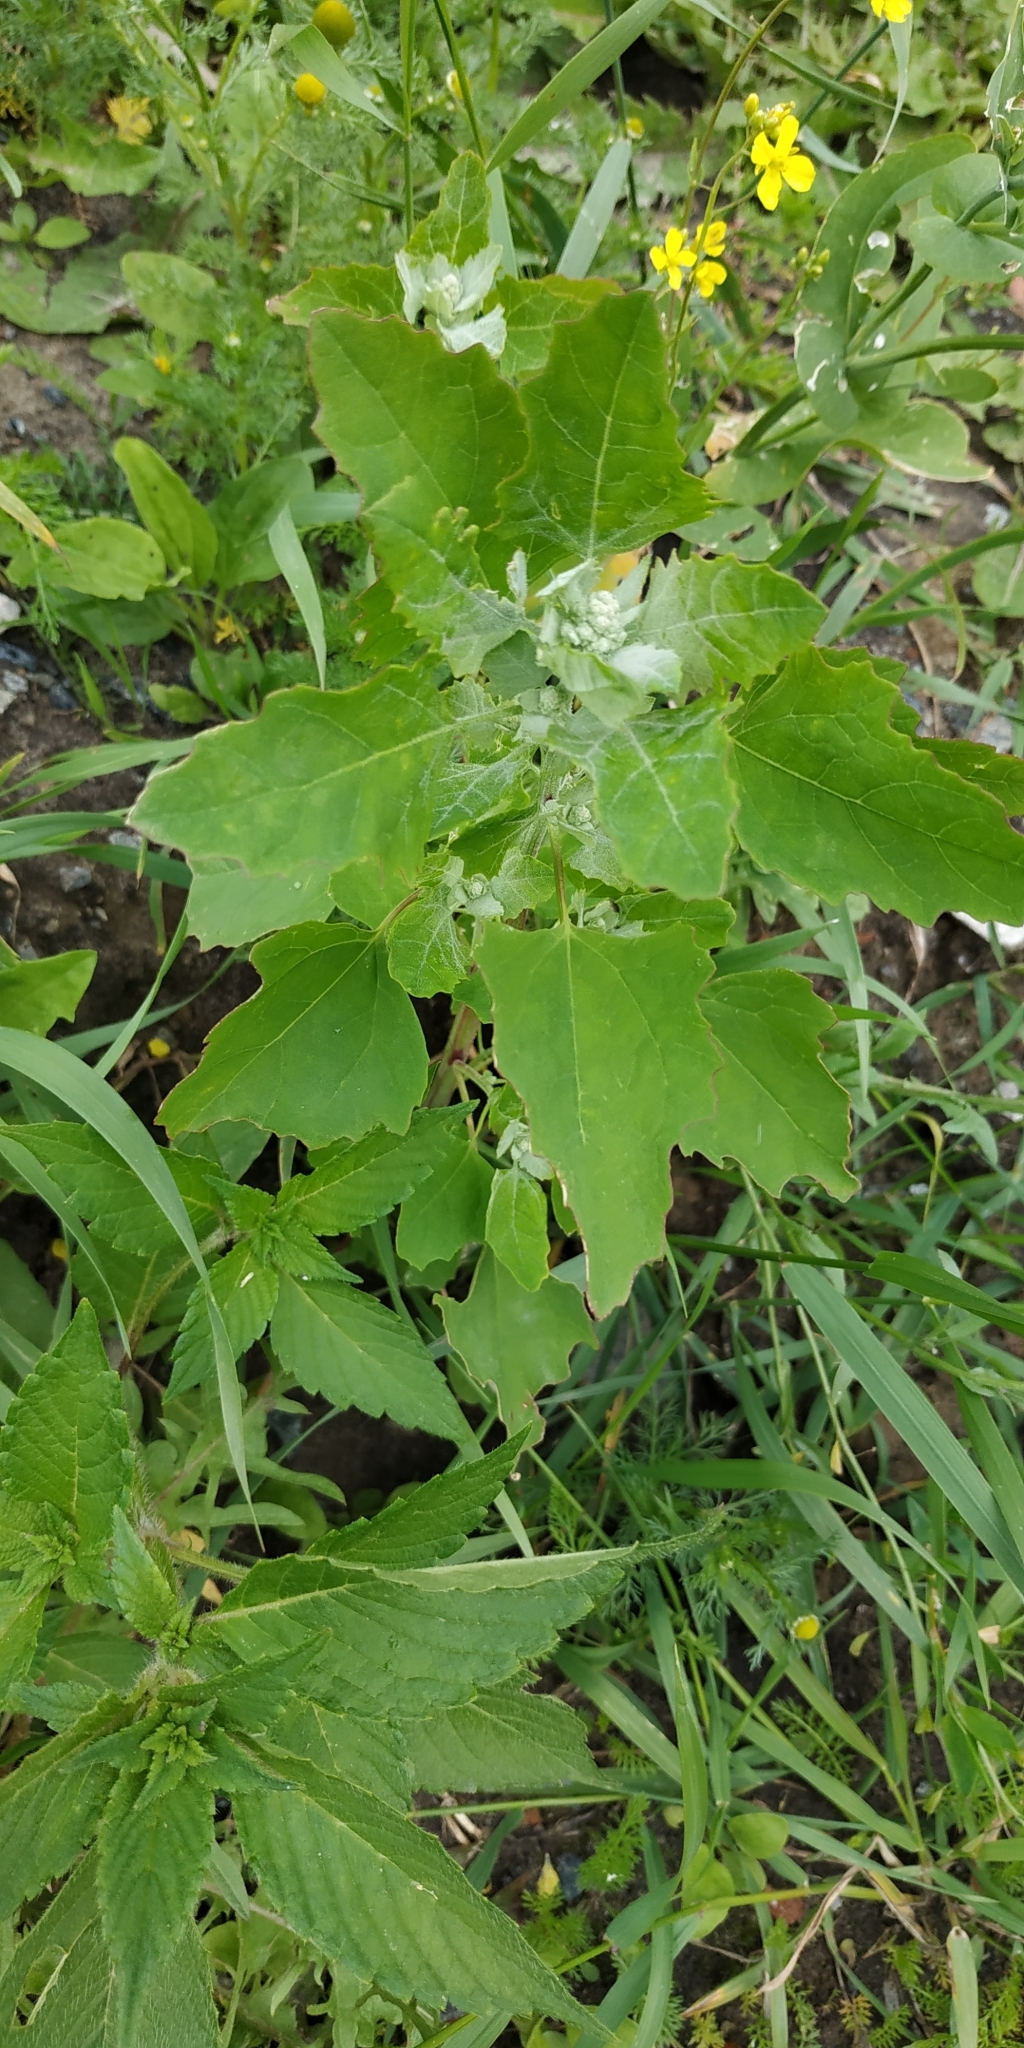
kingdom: Plantae
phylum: Tracheophyta
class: Magnoliopsida
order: Caryophyllales
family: Amaranthaceae
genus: Chenopodium
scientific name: Chenopodium album
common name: Fat-hen
